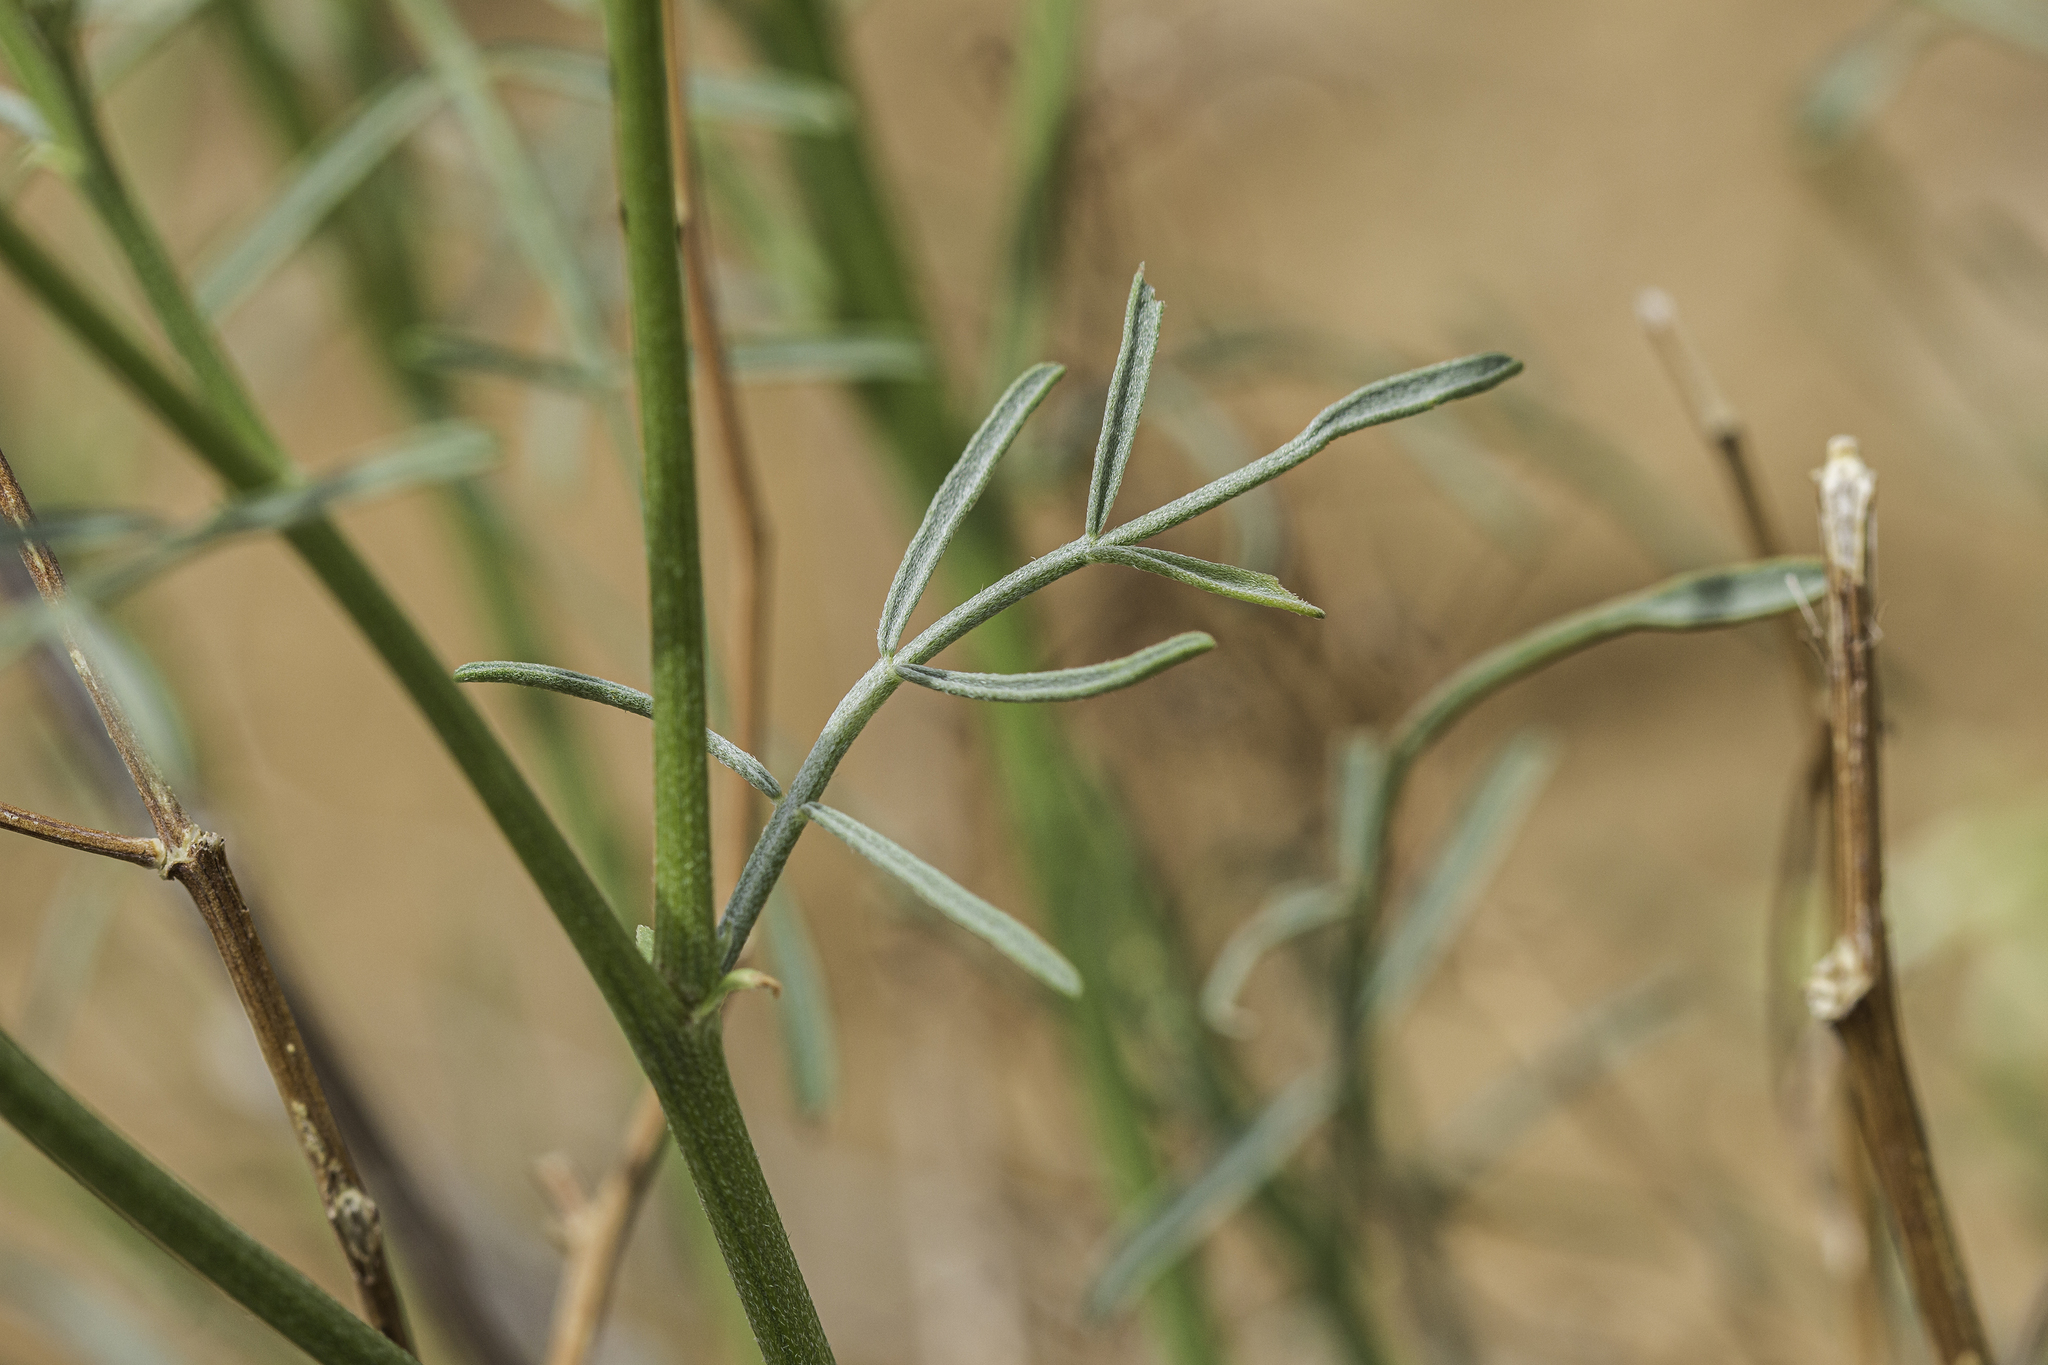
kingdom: Plantae
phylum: Tracheophyta
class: Magnoliopsida
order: Fabales
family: Fabaceae
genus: Astragalus
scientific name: Astragalus lonchocarpus
